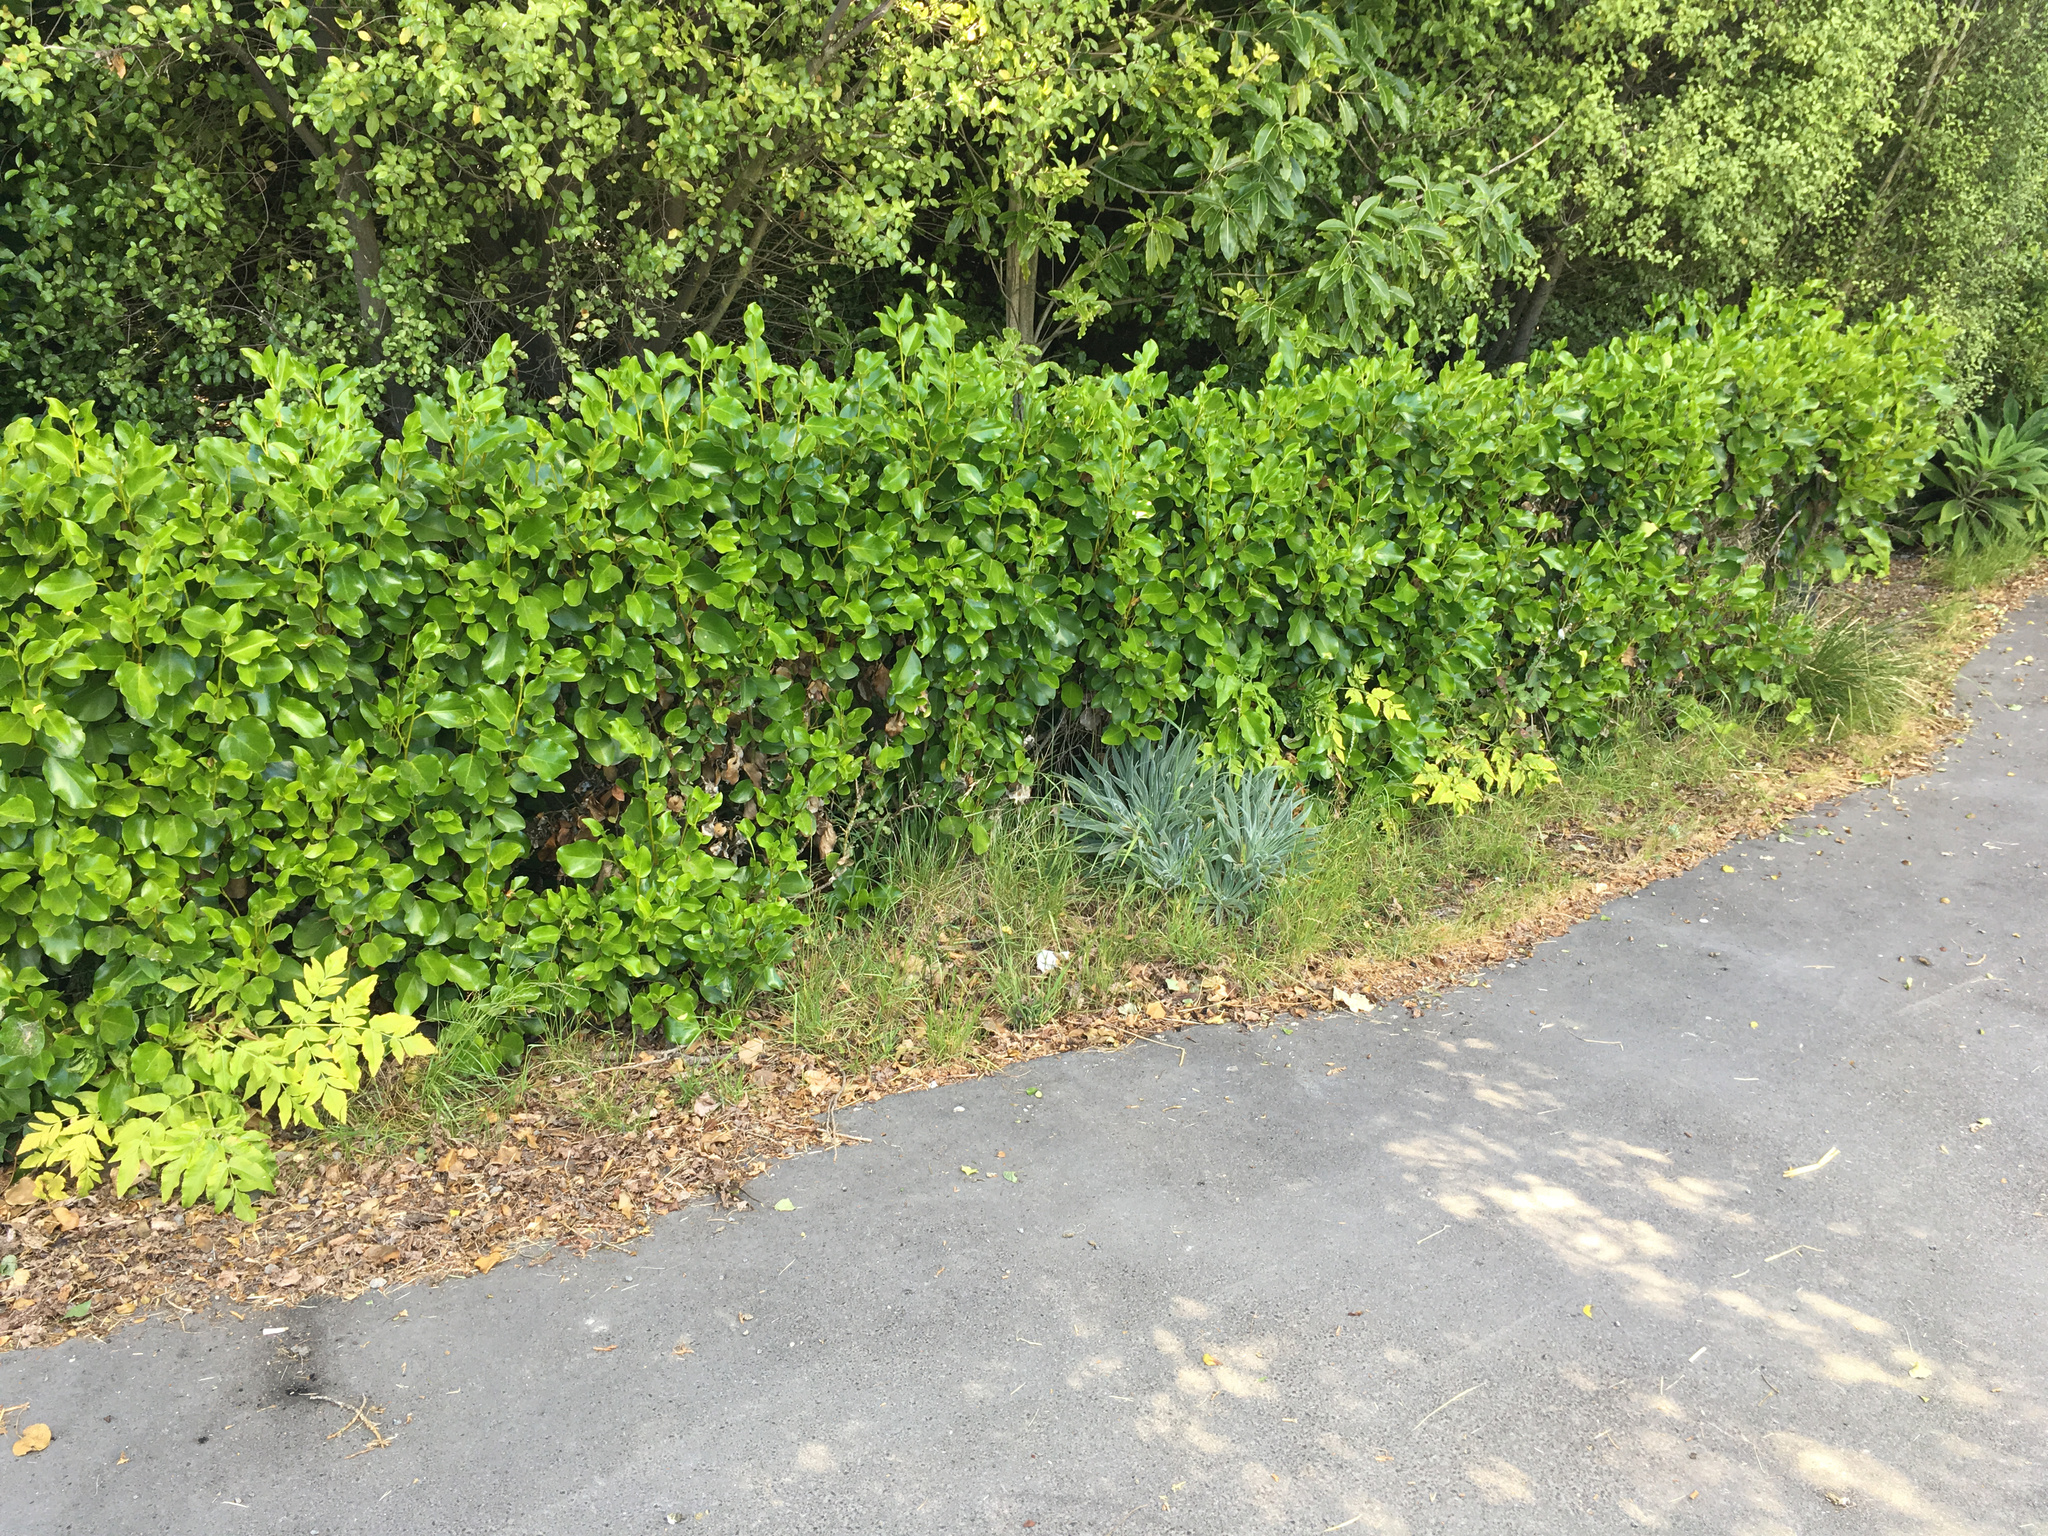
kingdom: Plantae
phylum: Tracheophyta
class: Magnoliopsida
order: Apiales
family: Apiaceae
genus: Daucus
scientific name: Daucus decipiens
